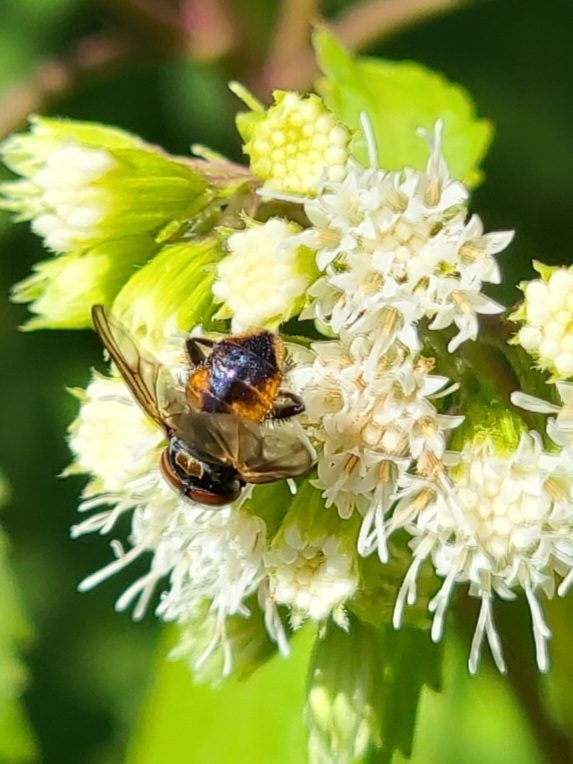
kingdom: Animalia
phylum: Arthropoda
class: Insecta
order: Diptera
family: Tachinidae
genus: Phasia
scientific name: Phasia aurulans
